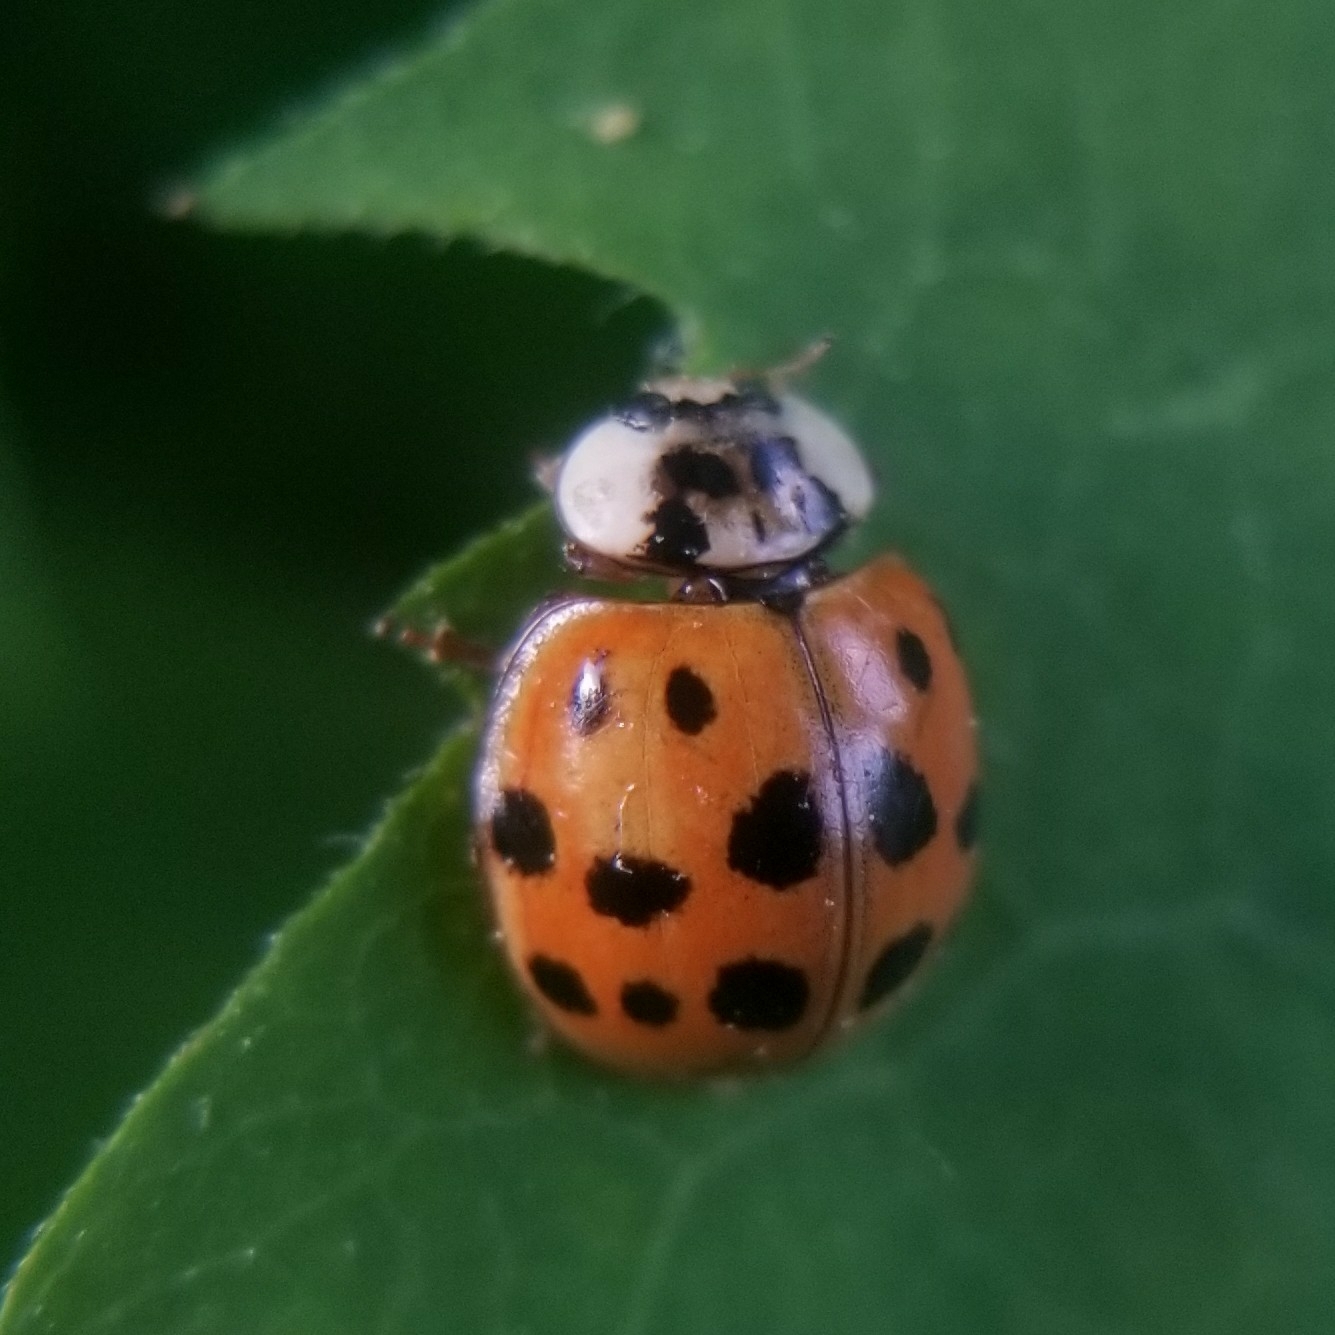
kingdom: Animalia
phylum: Arthropoda
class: Insecta
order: Coleoptera
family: Coccinellidae
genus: Harmonia
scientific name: Harmonia axyridis
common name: Harlequin ladybird
